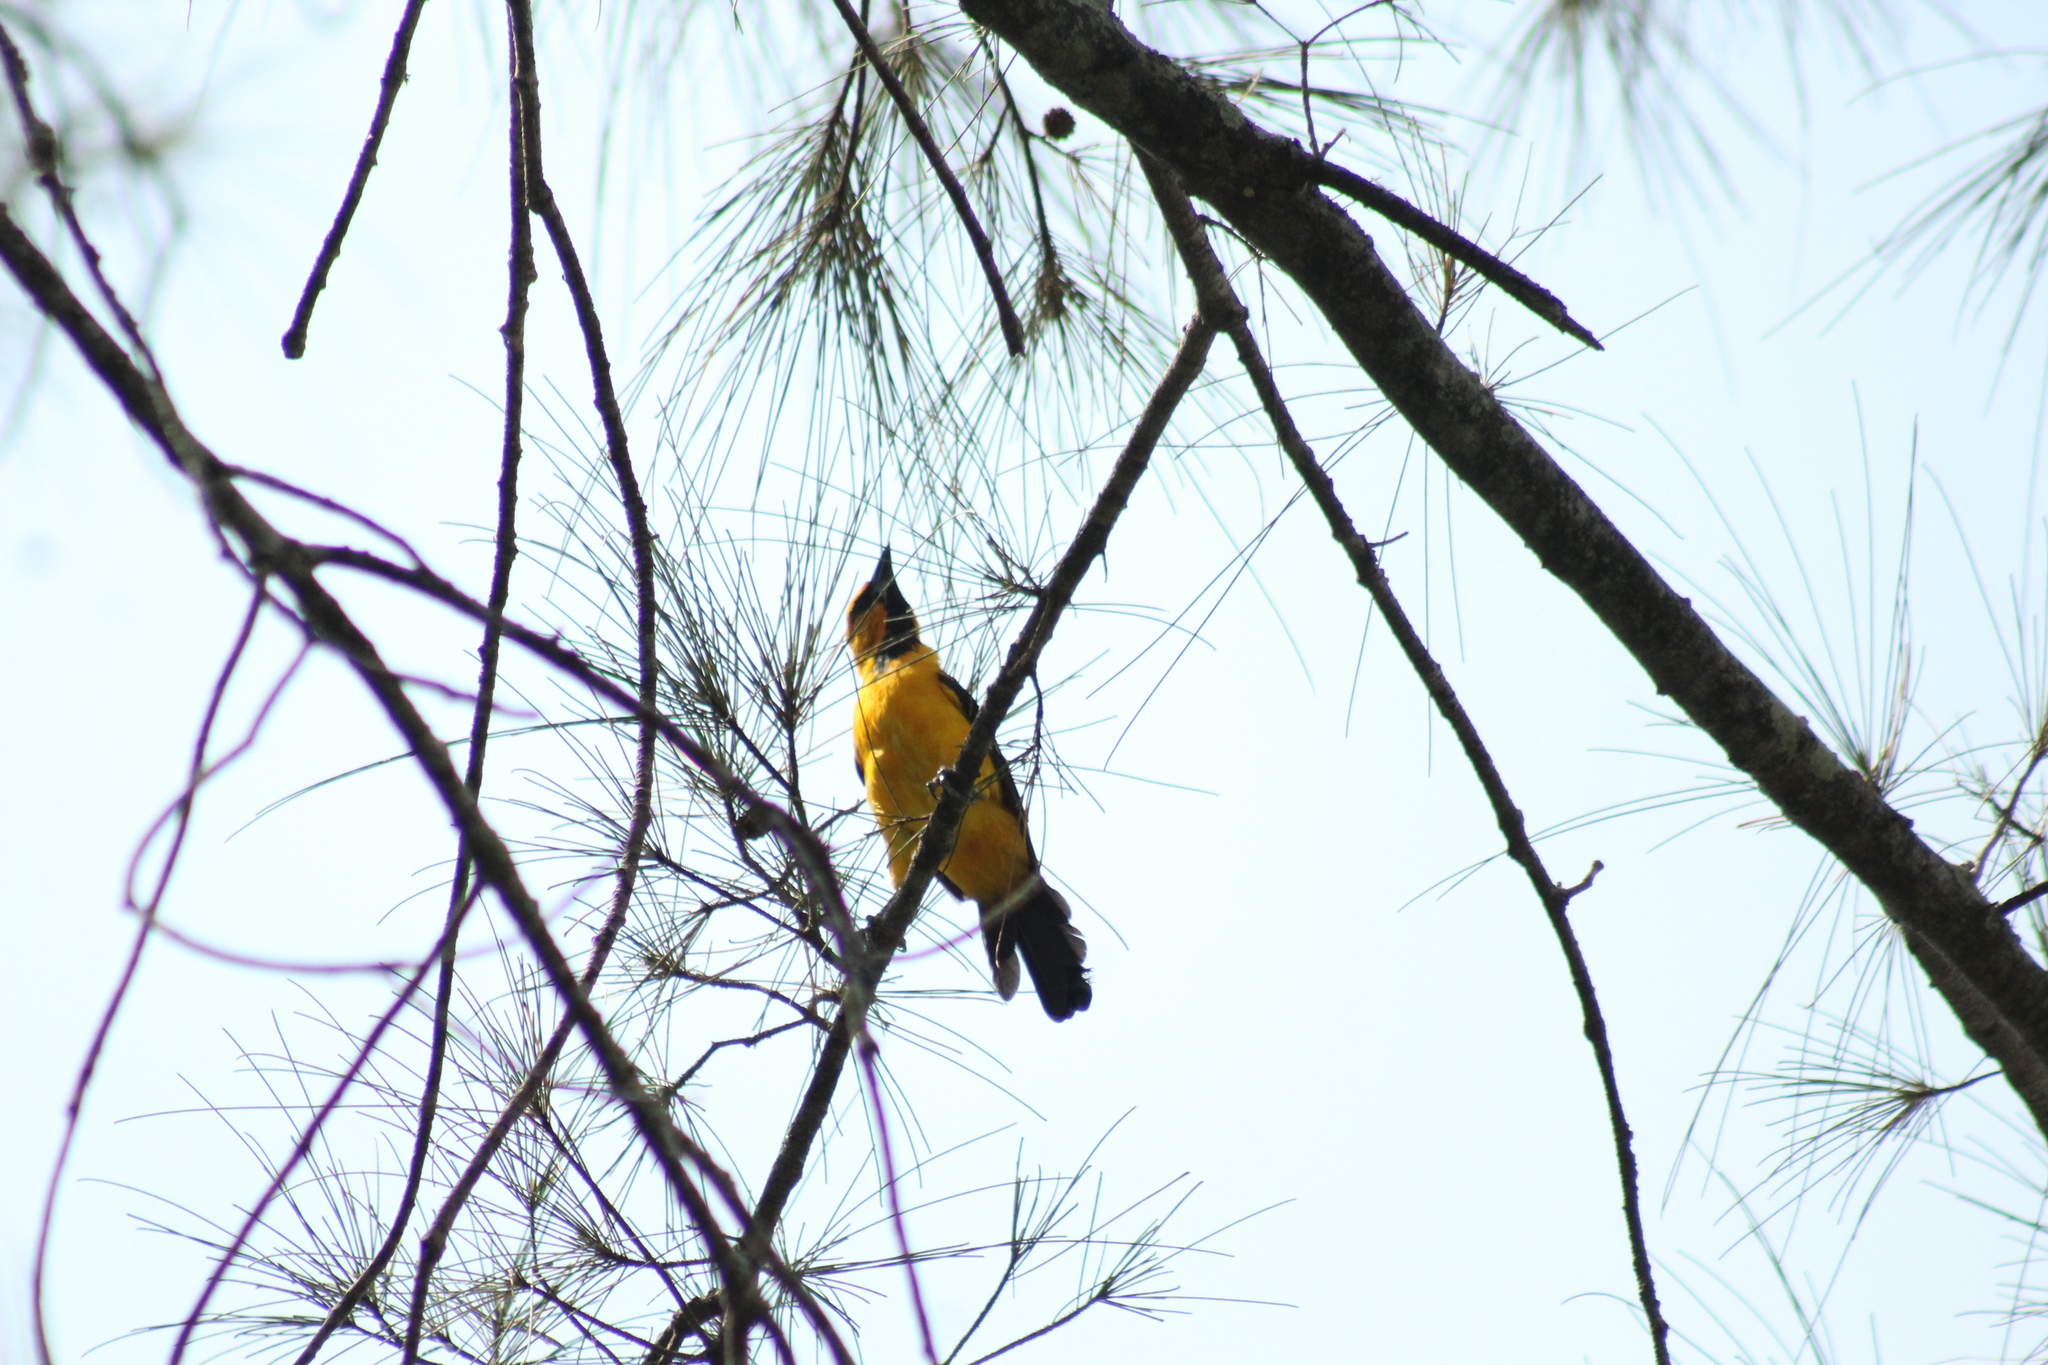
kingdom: Animalia
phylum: Chordata
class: Aves
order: Passeriformes
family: Icteridae
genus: Icterus
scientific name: Icterus gularis
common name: Altamira oriole
